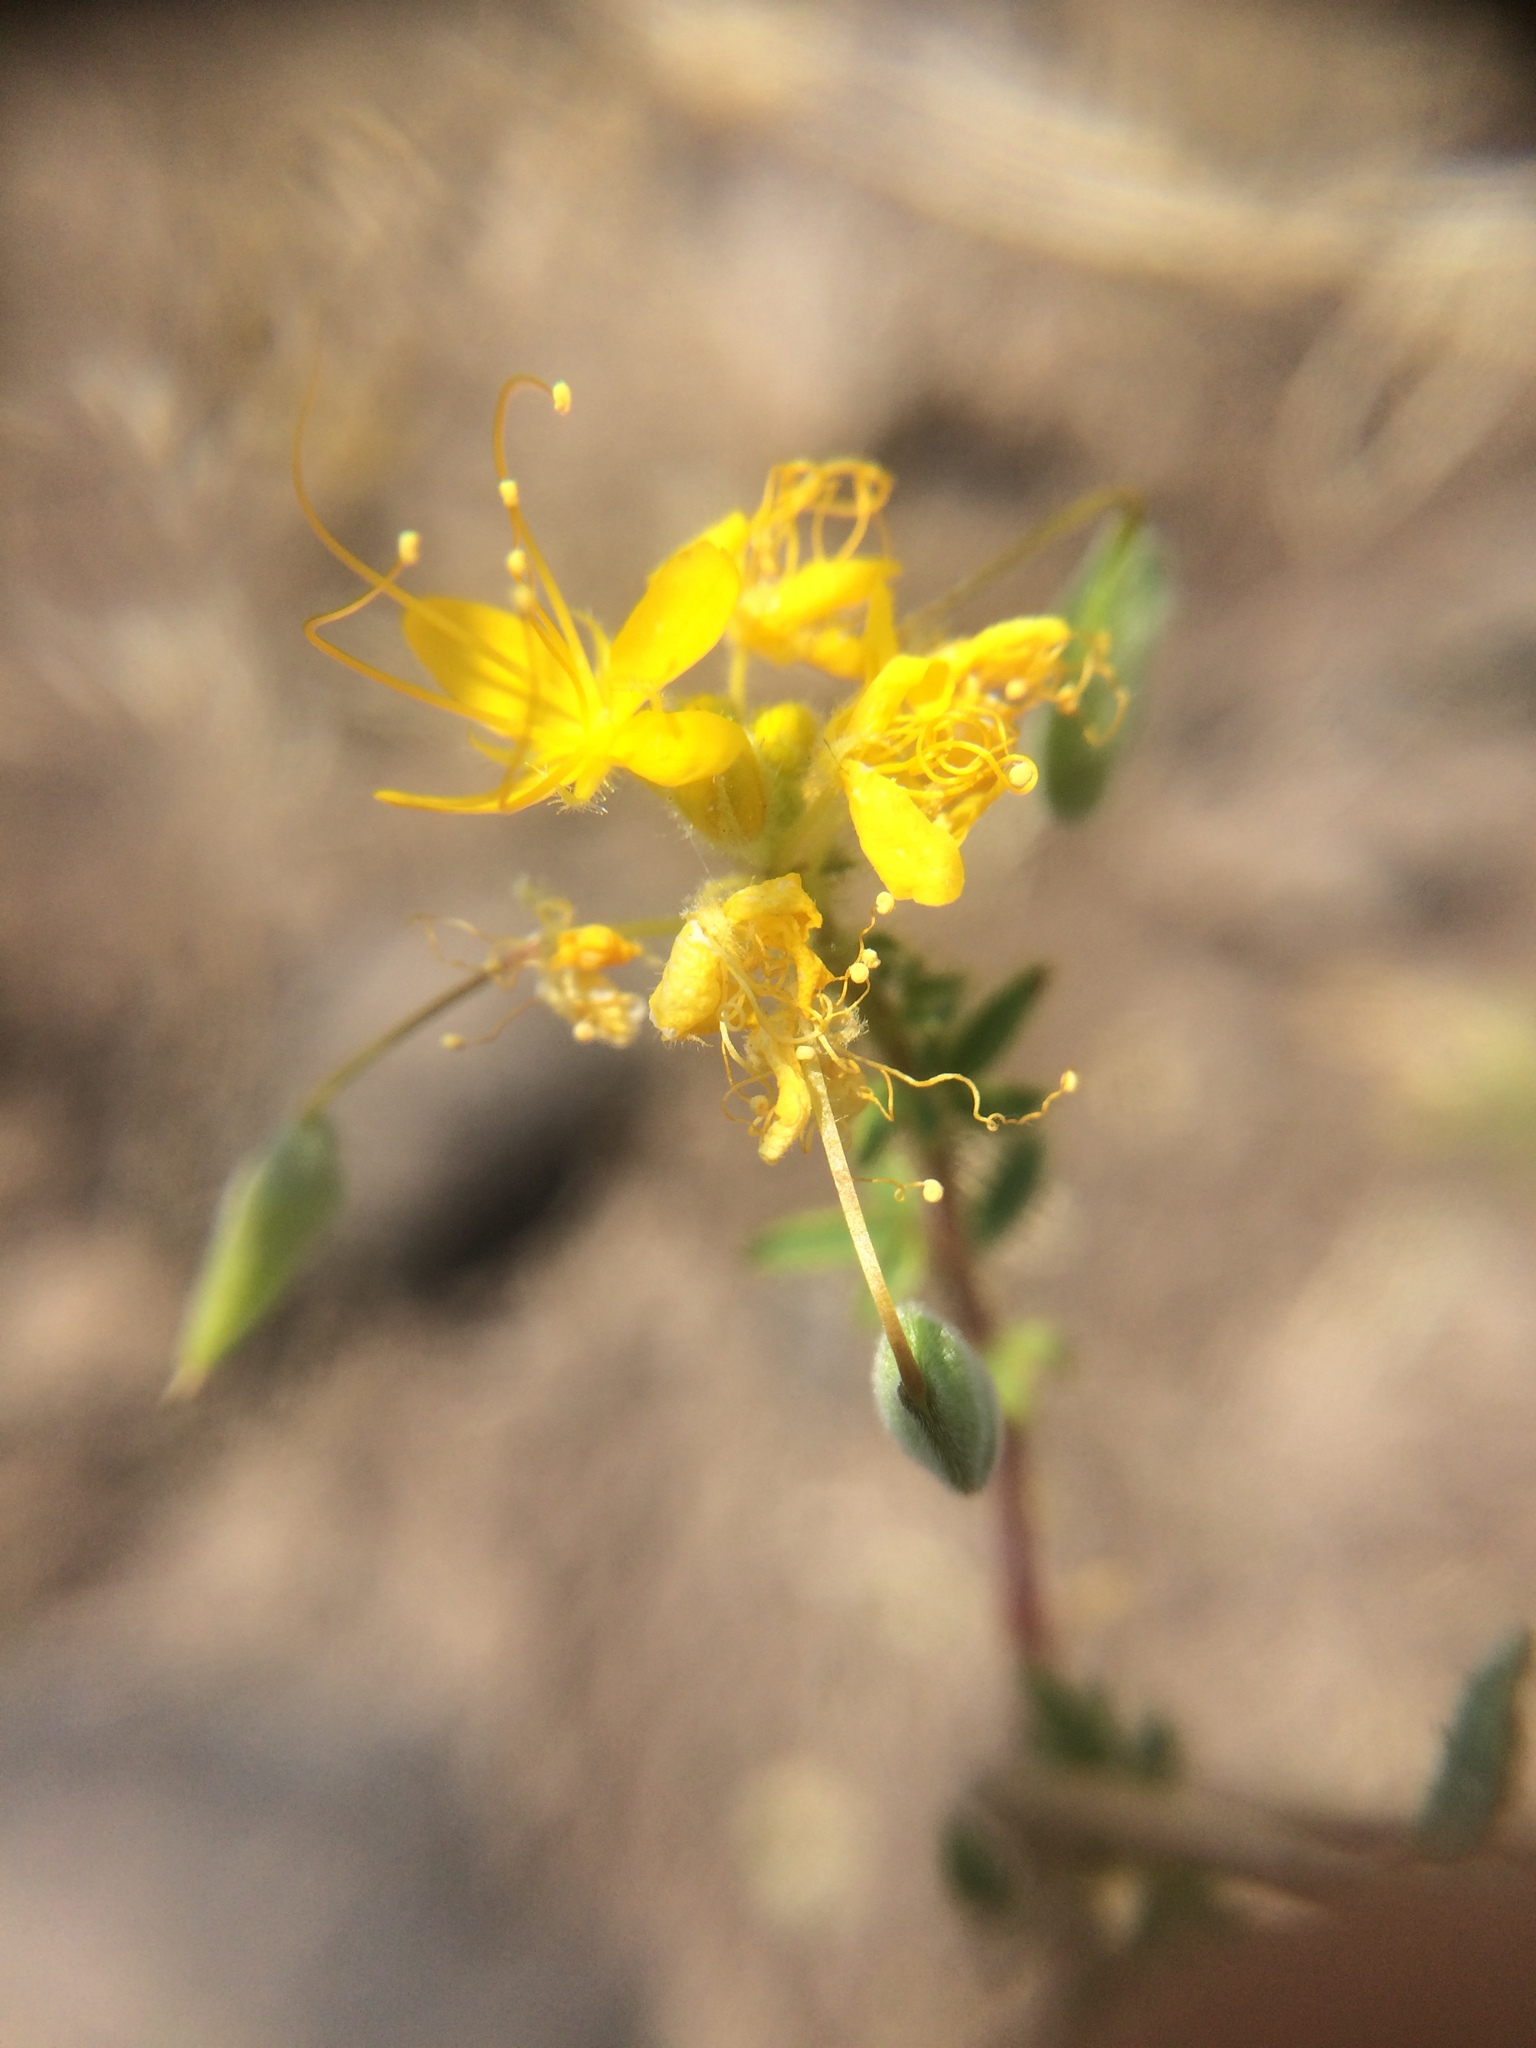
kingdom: Plantae
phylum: Tracheophyta
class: Magnoliopsida
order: Brassicales
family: Cleomaceae
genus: Cleomella
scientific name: Cleomella platycarpa
